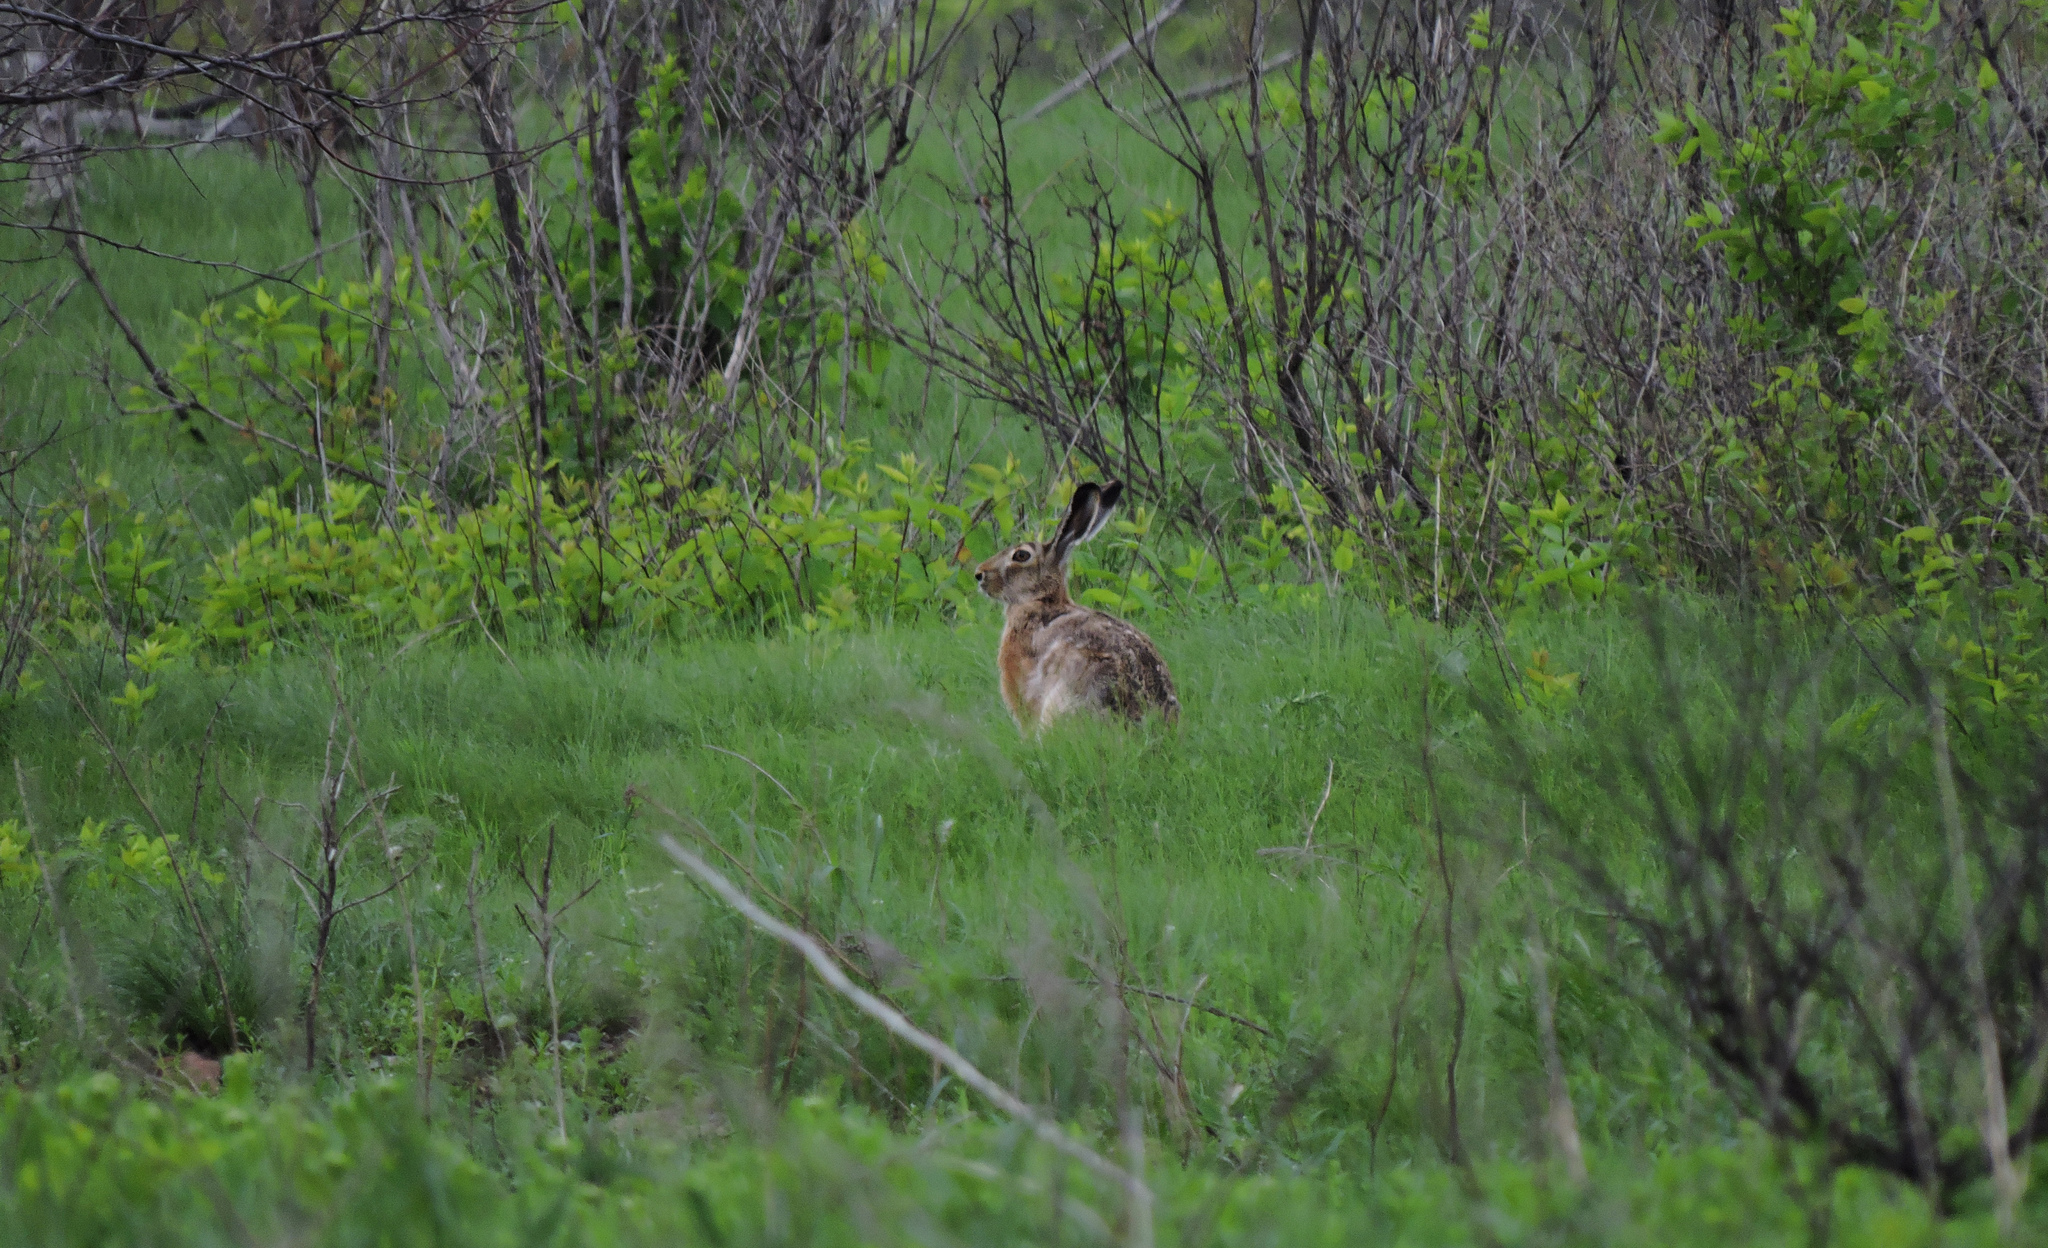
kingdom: Animalia
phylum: Chordata
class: Mammalia
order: Lagomorpha
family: Leporidae
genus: Lepus
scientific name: Lepus europaeus
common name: European hare
